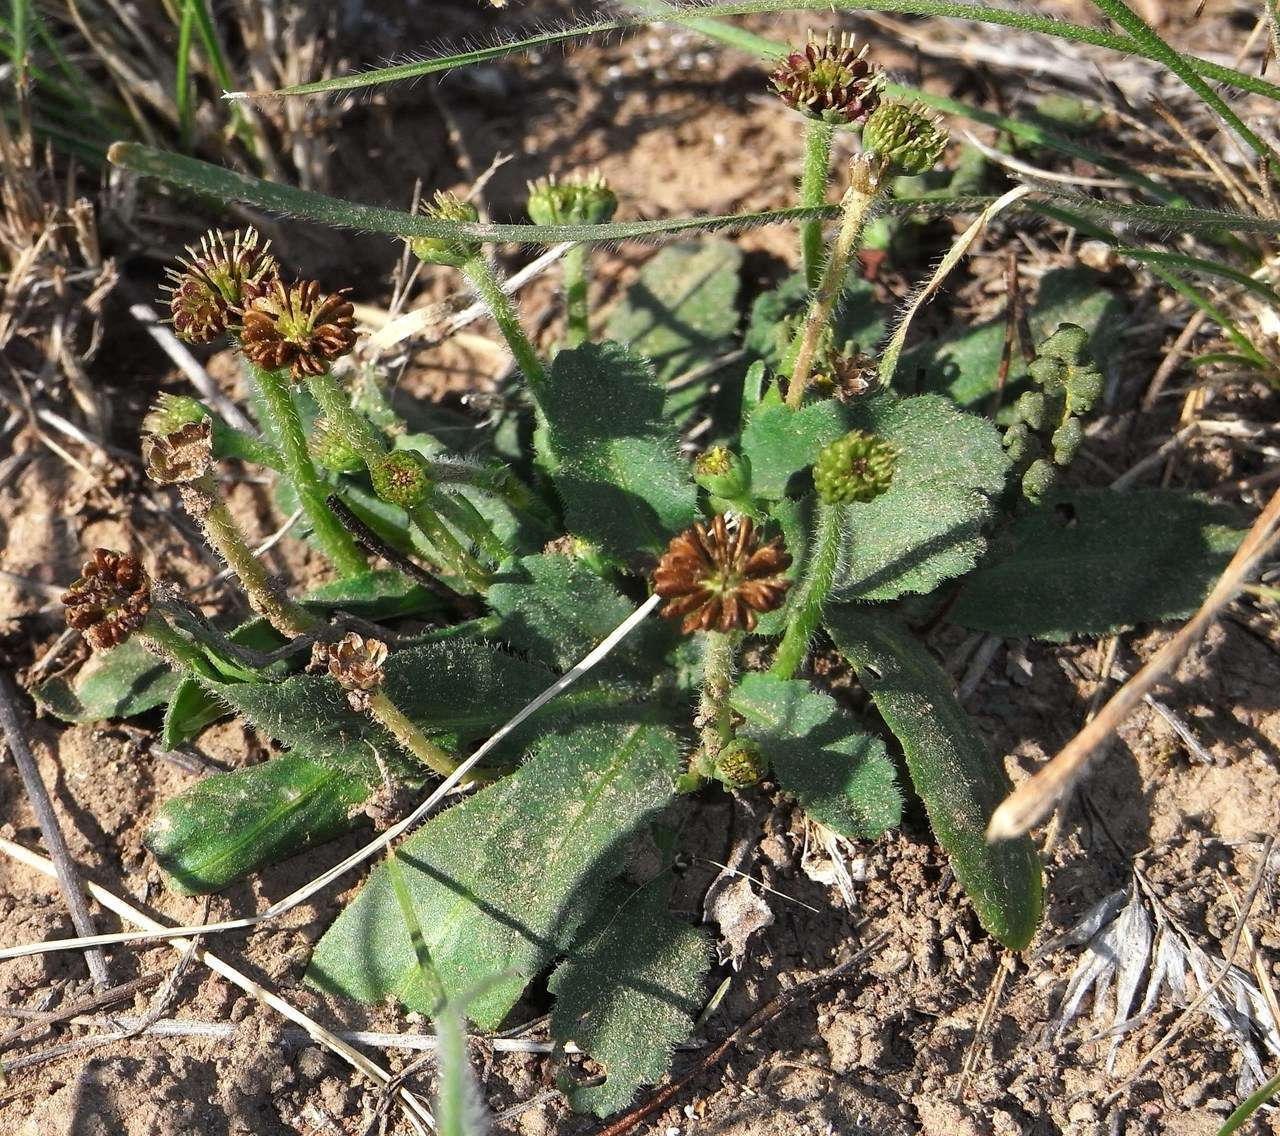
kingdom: Plantae
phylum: Tracheophyta
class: Magnoliopsida
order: Asterales
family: Asteraceae
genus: Solenogyne
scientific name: Solenogyne gunnii
